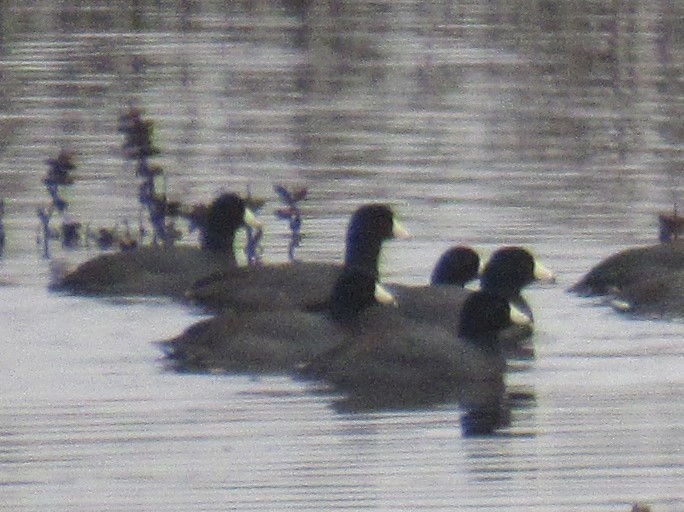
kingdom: Animalia
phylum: Chordata
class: Aves
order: Gruiformes
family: Rallidae
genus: Fulica
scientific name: Fulica americana
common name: American coot
